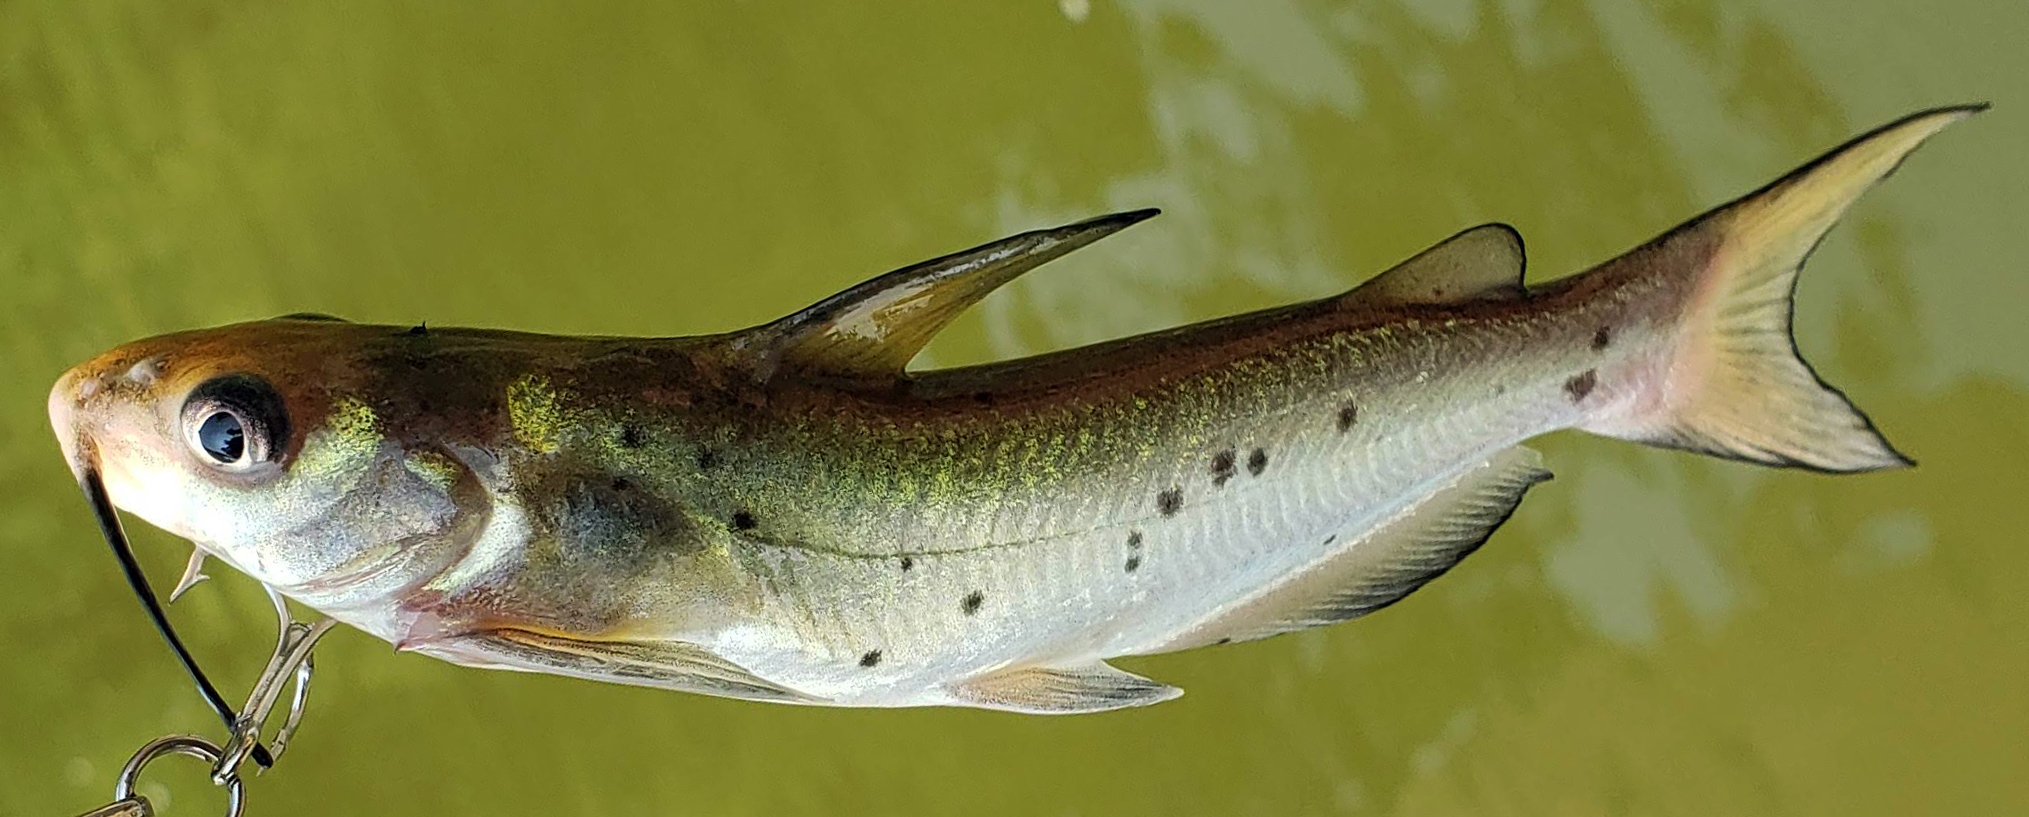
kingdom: Animalia
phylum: Chordata
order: Siluriformes
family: Ictaluridae
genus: Ictalurus
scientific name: Ictalurus punctatus
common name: Channel catfish
